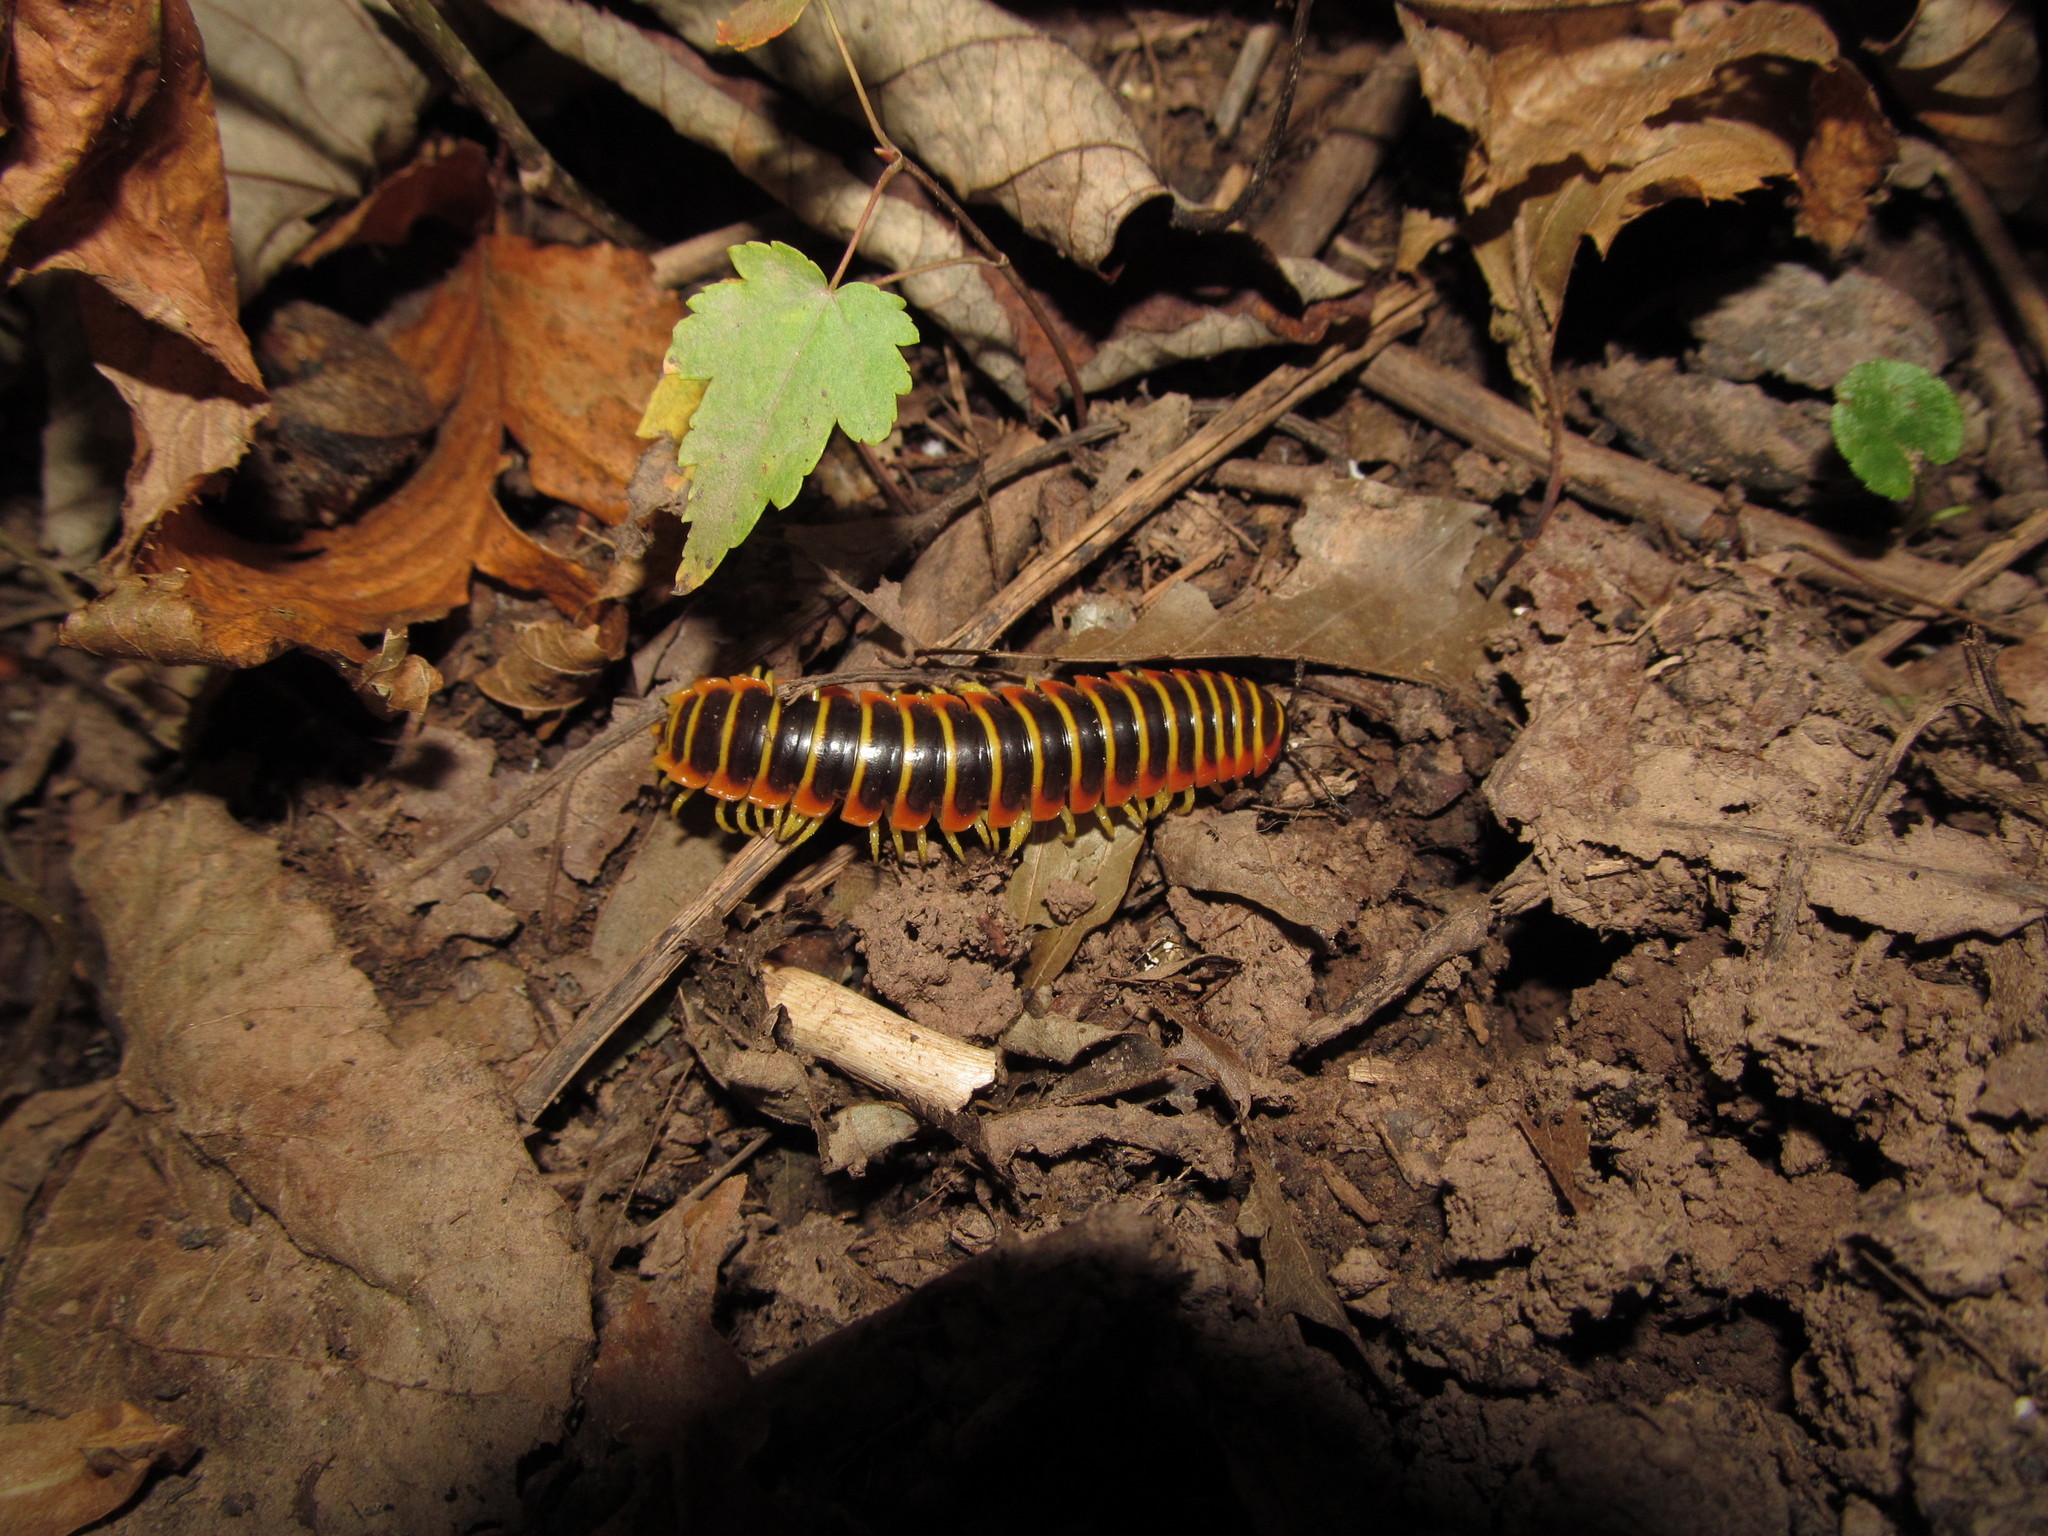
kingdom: Animalia
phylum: Arthropoda
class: Diplopoda
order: Polydesmida
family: Xystodesmidae
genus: Apheloria
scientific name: Apheloria virginiensis
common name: Black-and-gold flat millipede
